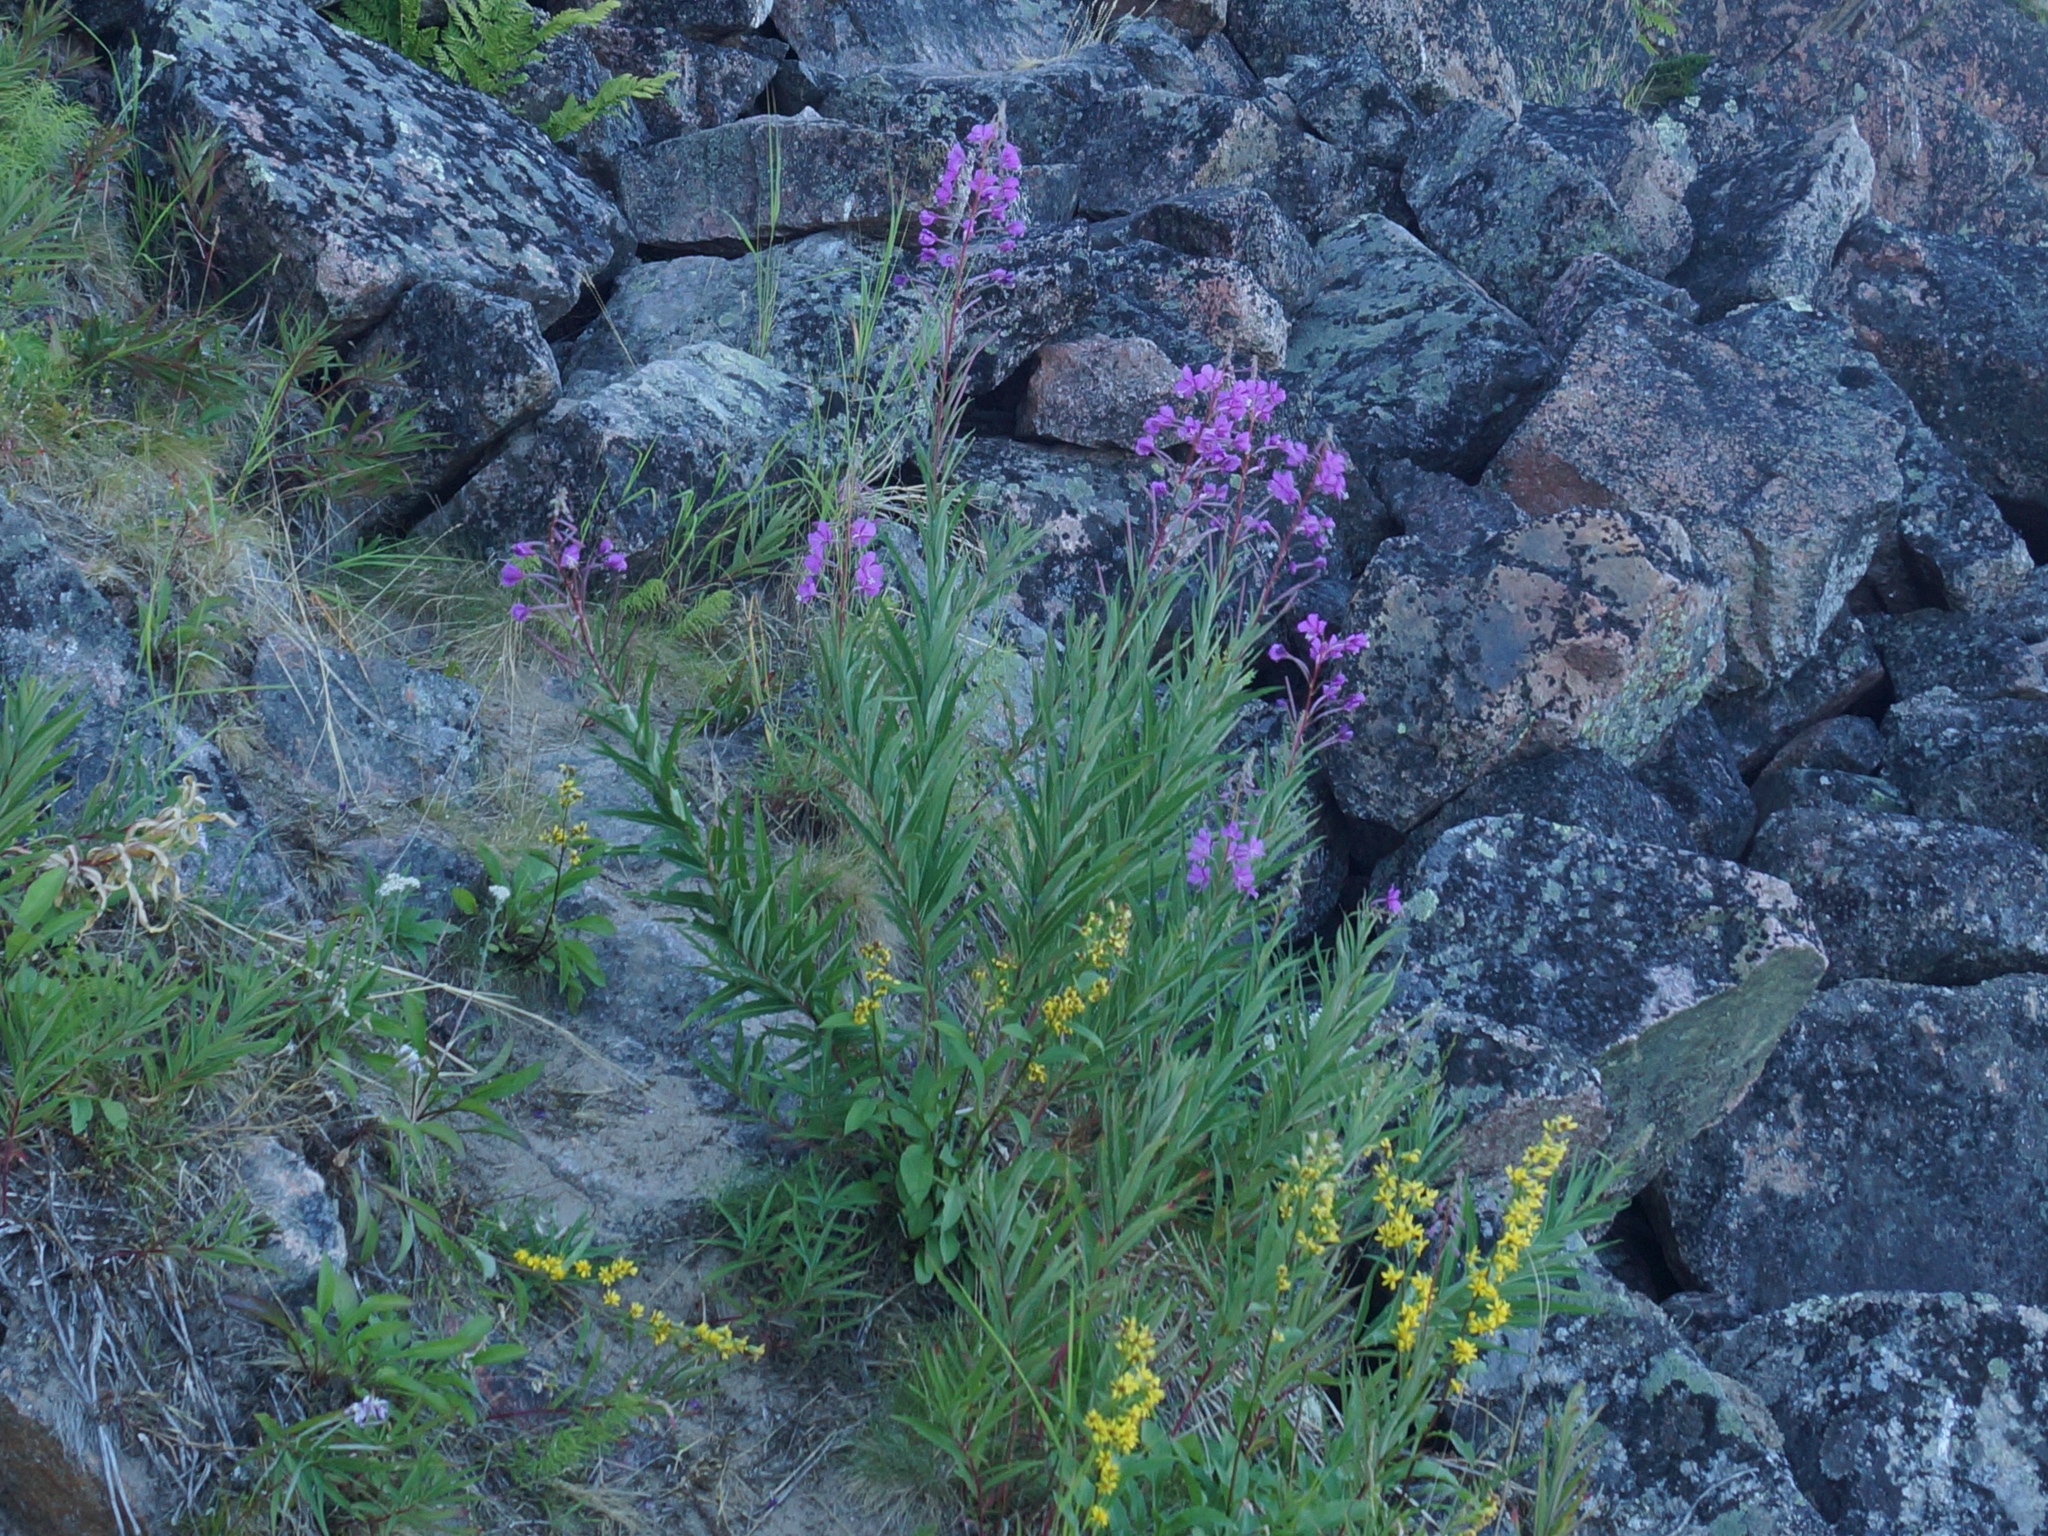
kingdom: Plantae
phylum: Tracheophyta
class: Magnoliopsida
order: Myrtales
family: Onagraceae
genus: Chamaenerion
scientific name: Chamaenerion angustifolium
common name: Fireweed
